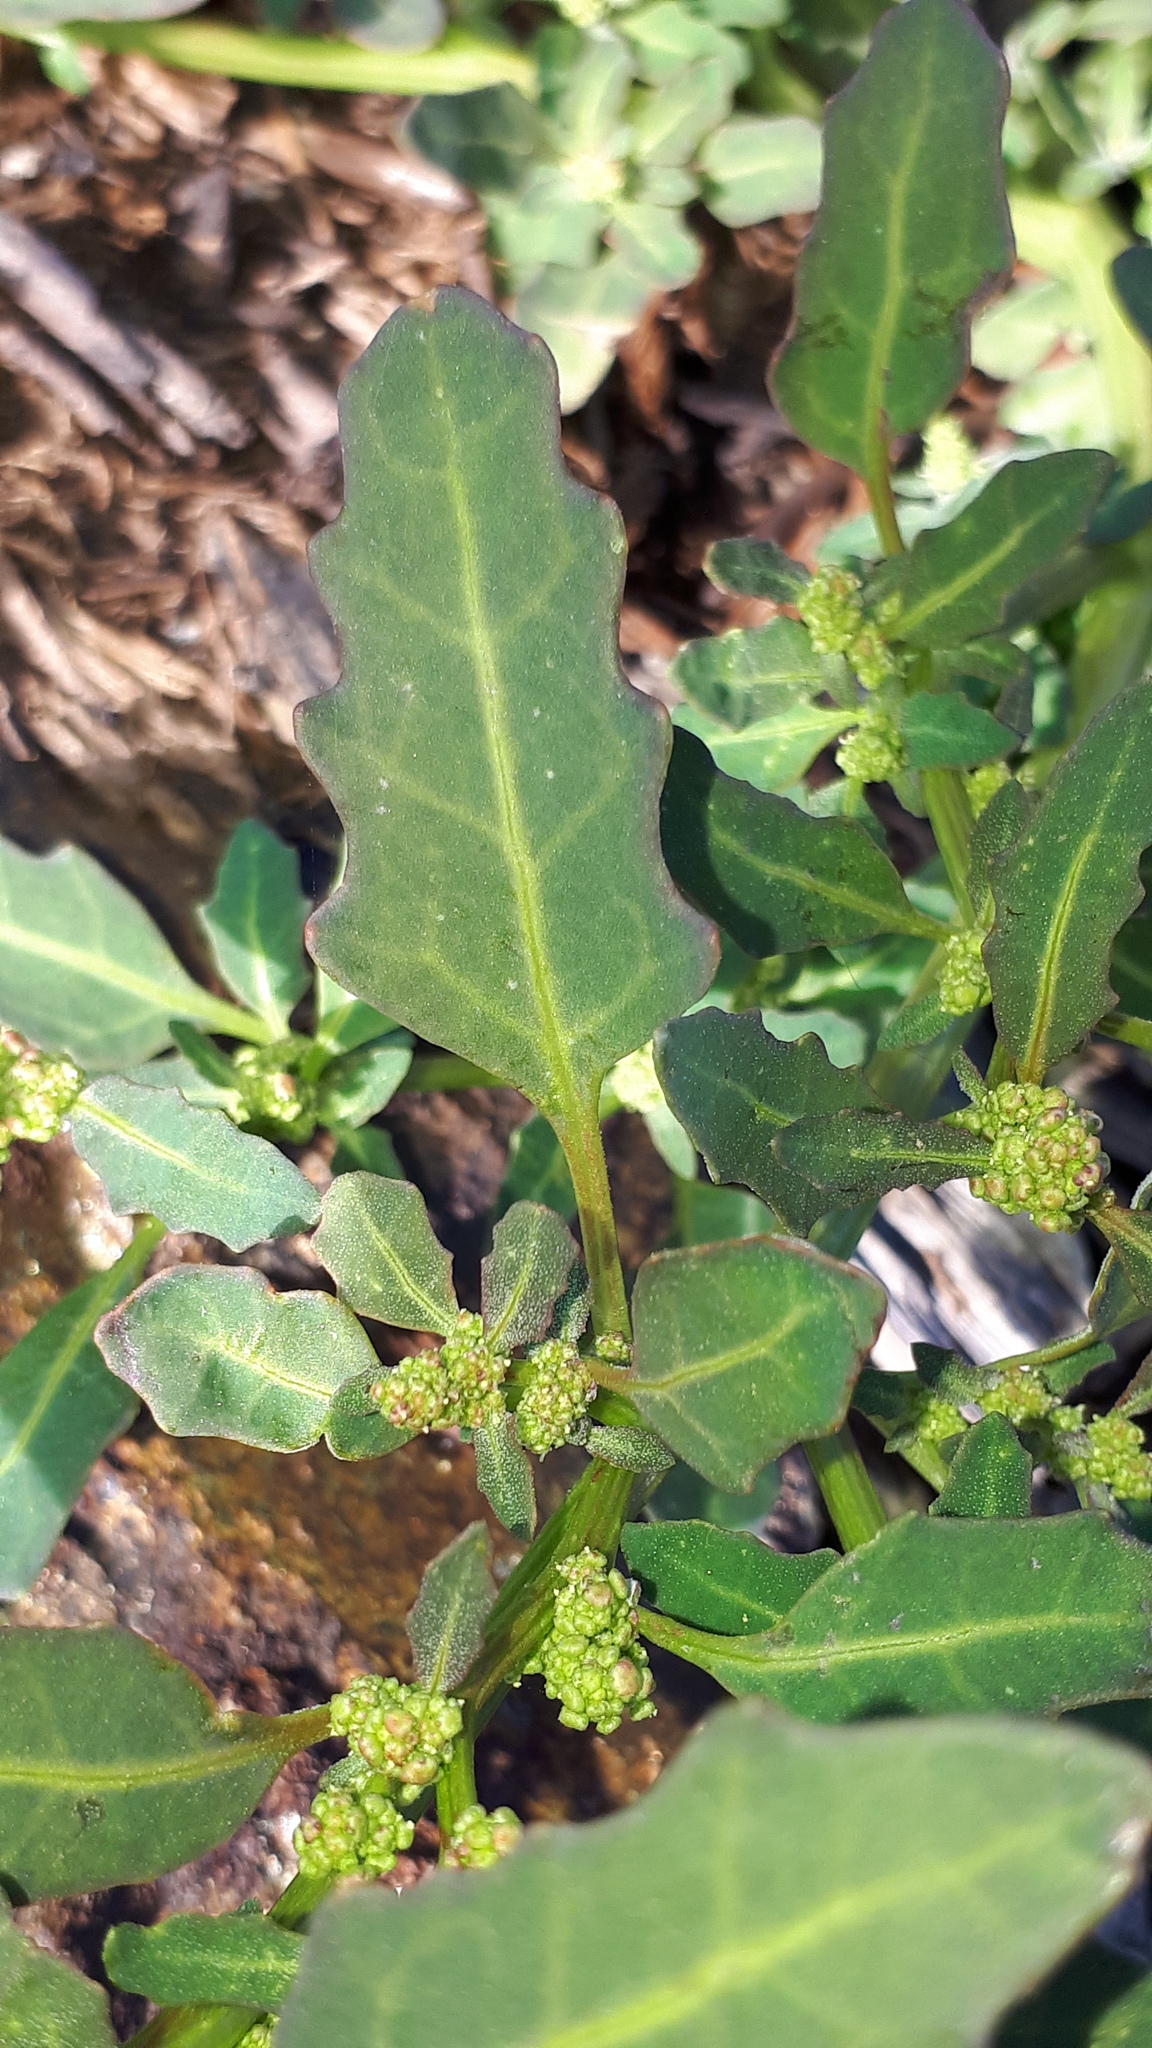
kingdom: Plantae
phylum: Tracheophyta
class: Magnoliopsida
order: Caryophyllales
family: Amaranthaceae
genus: Oxybasis
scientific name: Oxybasis glauca
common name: Glaucous goosefoot
